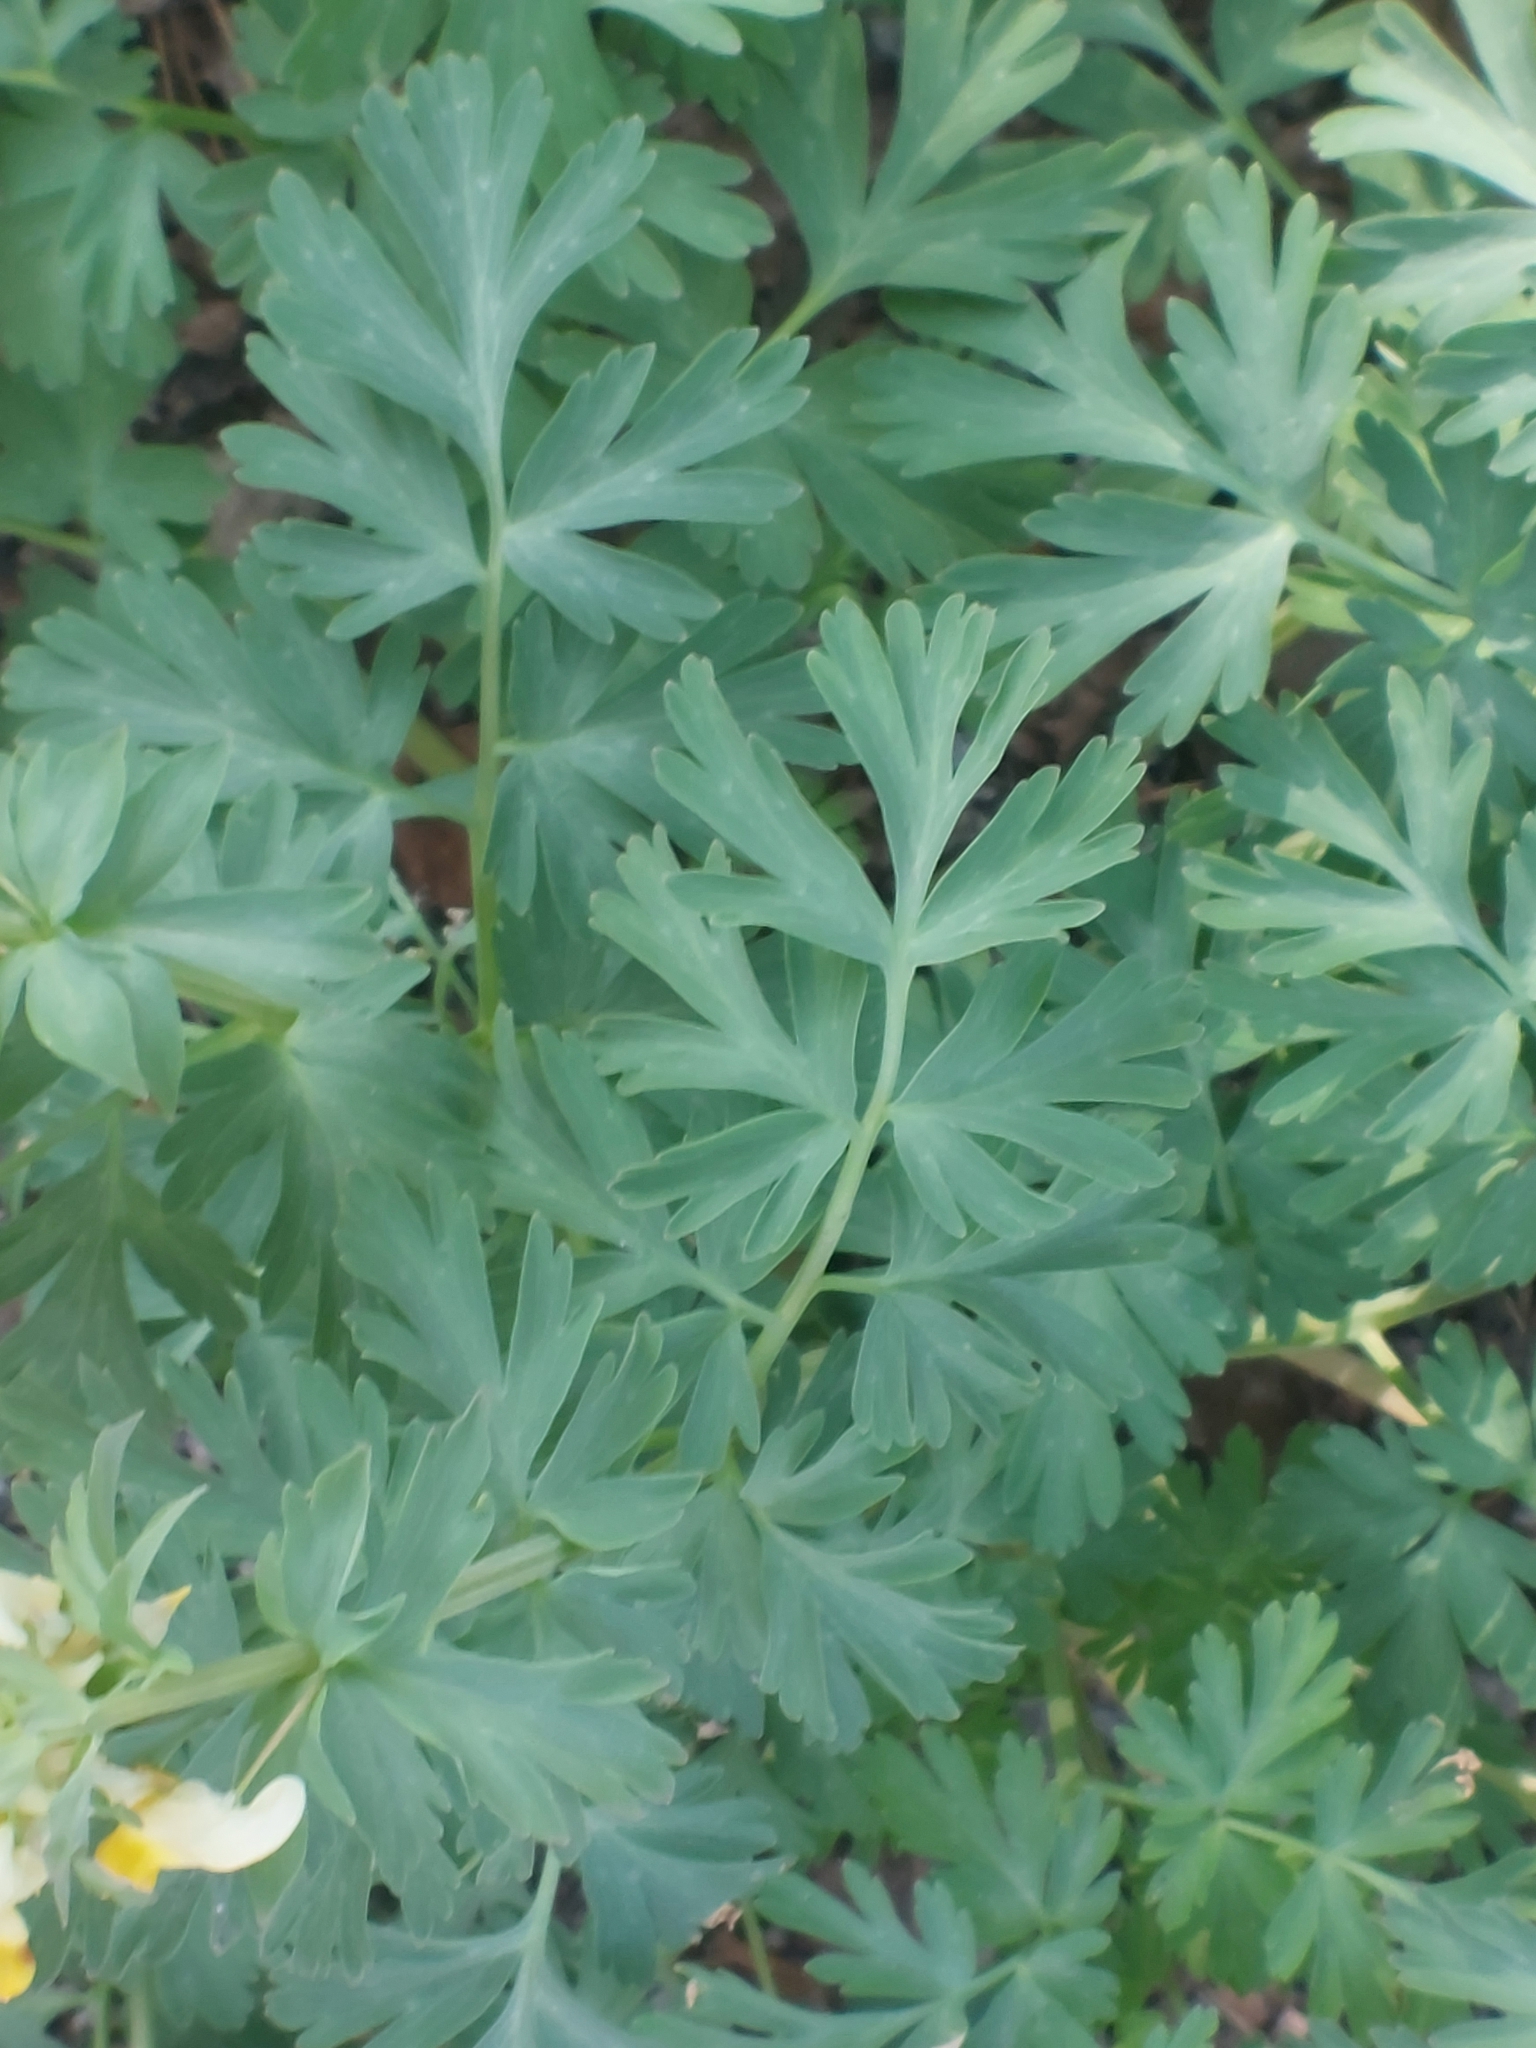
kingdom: Plantae
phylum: Tracheophyta
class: Magnoliopsida
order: Ranunculales
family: Papaveraceae
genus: Corydalis
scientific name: Corydalis nobilis
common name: Siberian corydalis
